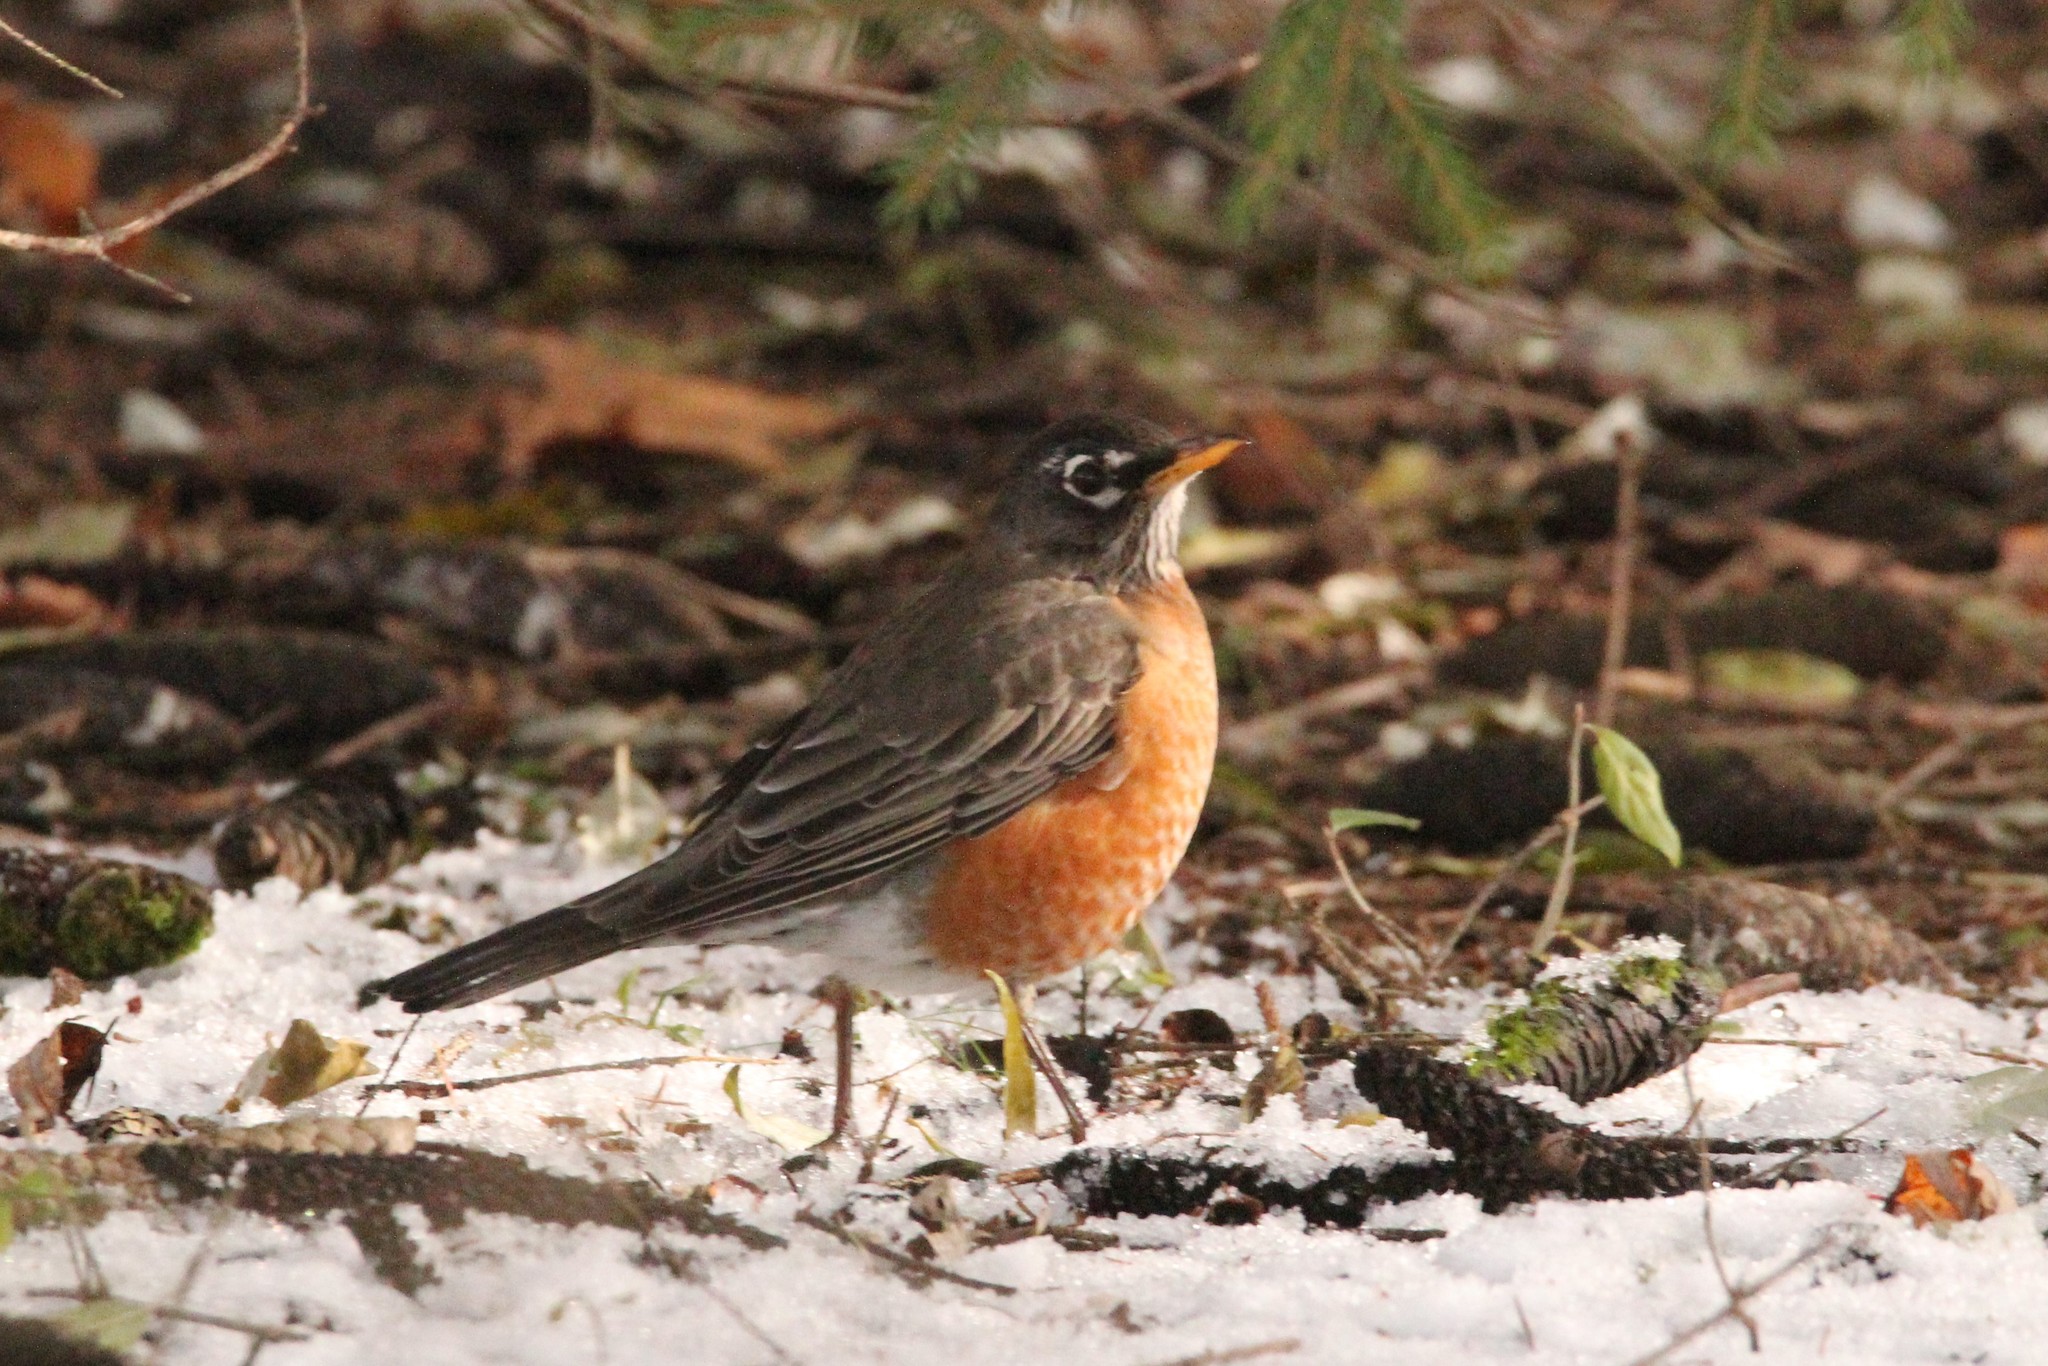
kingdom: Animalia
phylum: Chordata
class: Aves
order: Passeriformes
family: Turdidae
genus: Turdus
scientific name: Turdus migratorius
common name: American robin
